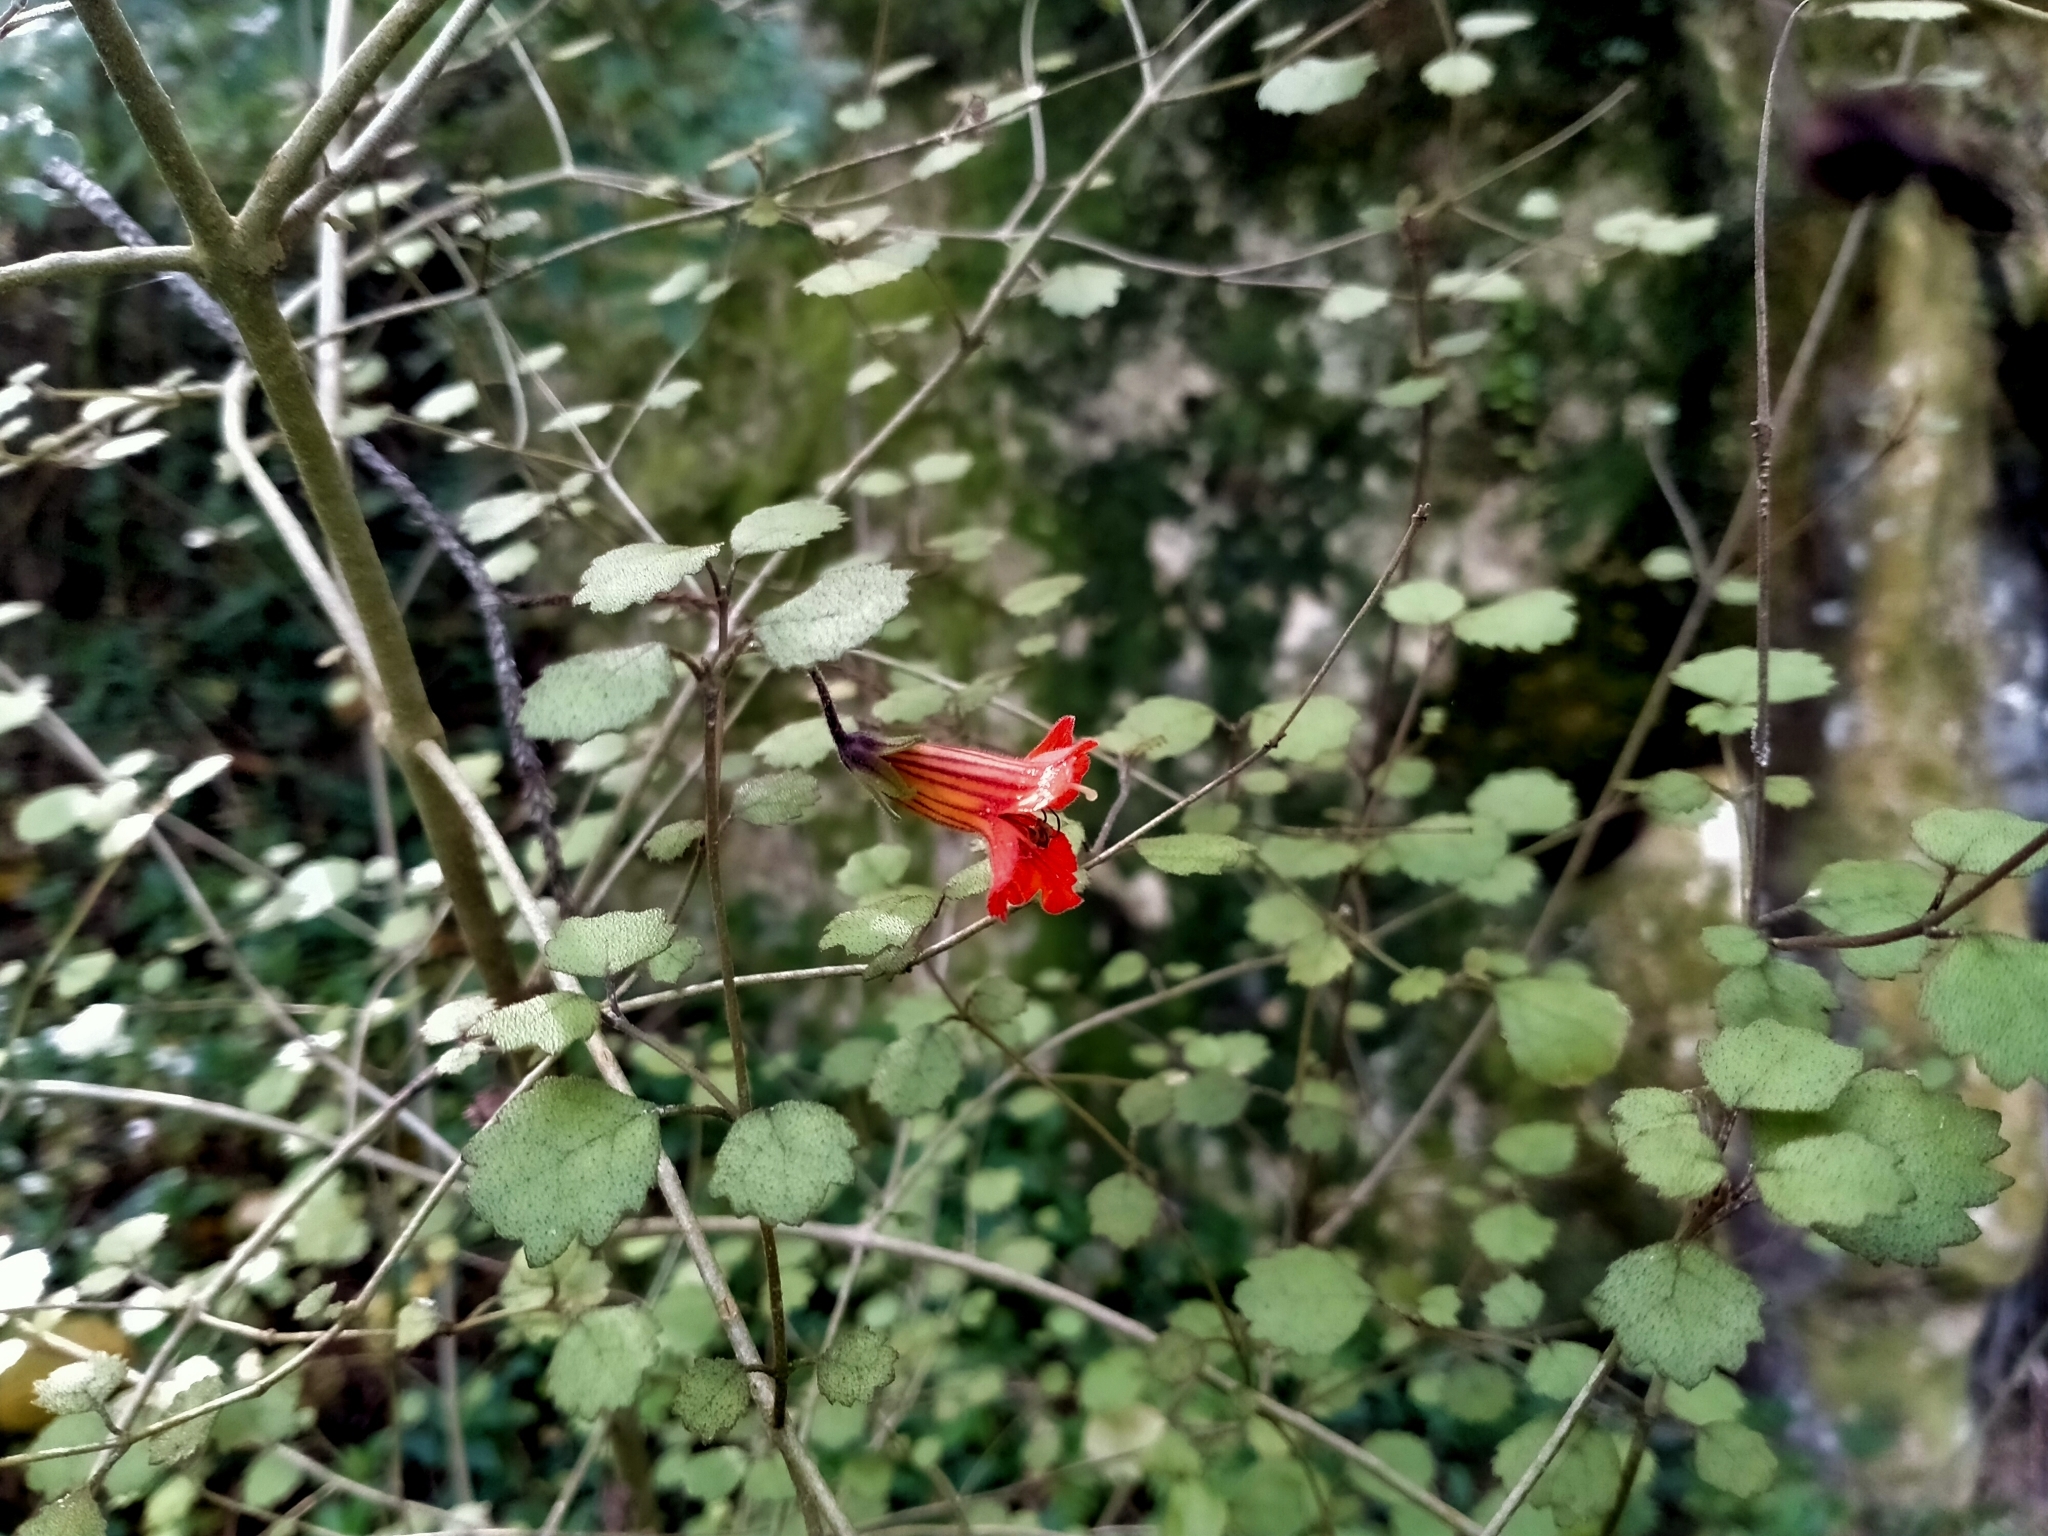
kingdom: Plantae
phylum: Tracheophyta
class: Magnoliopsida
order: Lamiales
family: Gesneriaceae
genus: Rhabdothamnus
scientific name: Rhabdothamnus solandri
